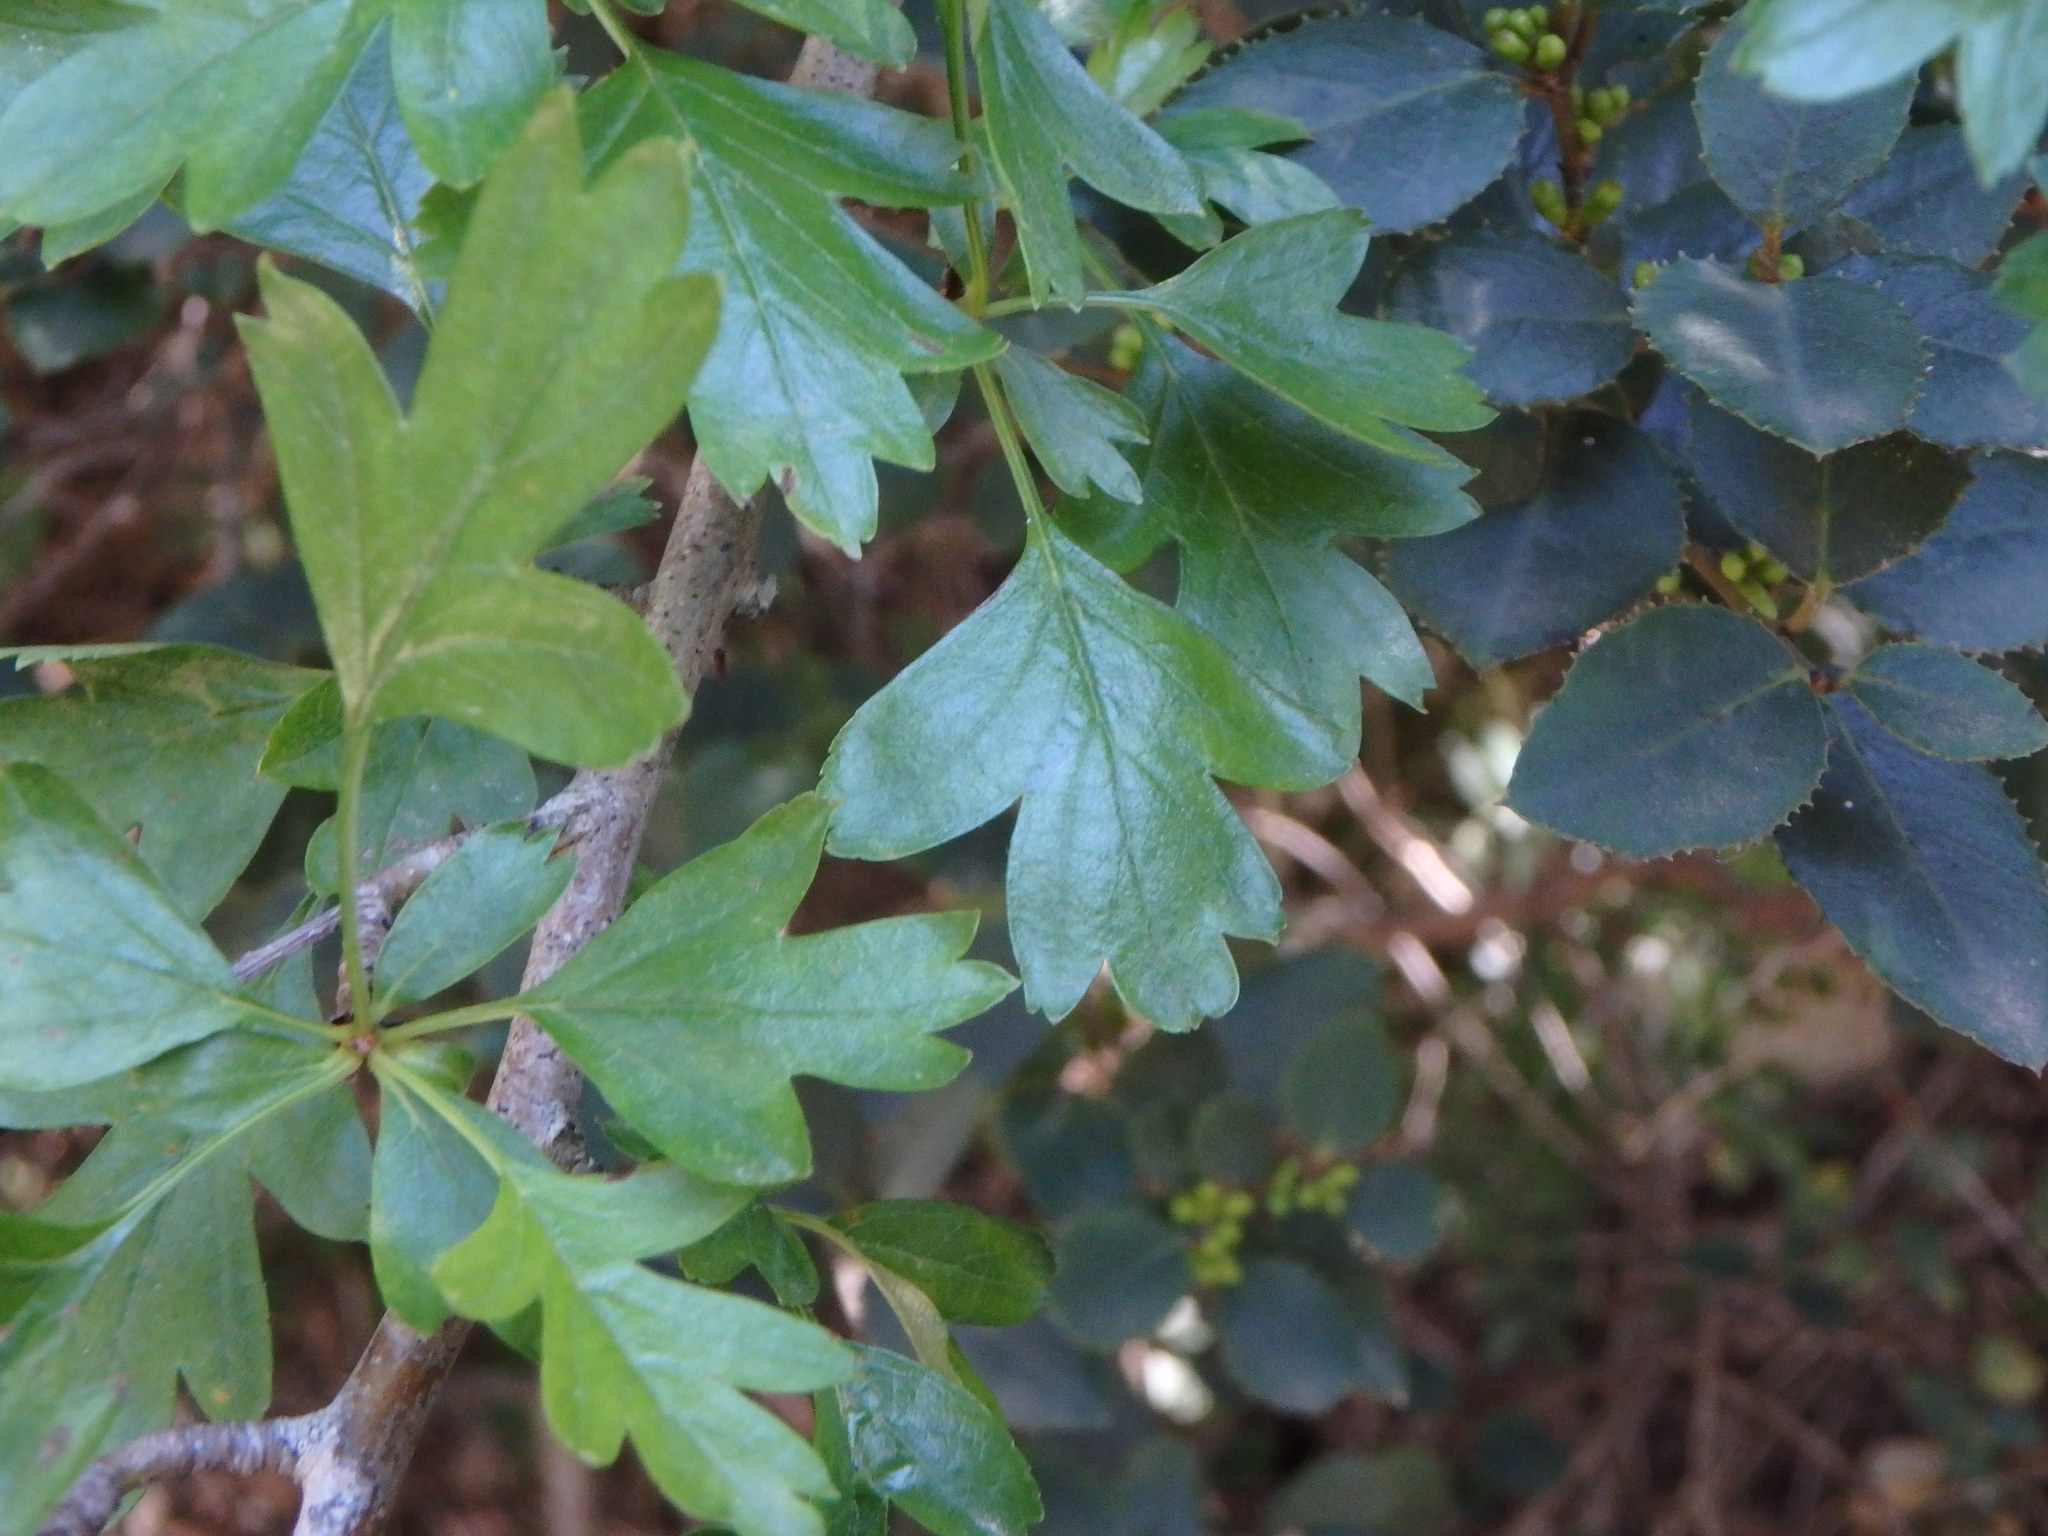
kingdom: Plantae
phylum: Tracheophyta
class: Magnoliopsida
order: Rosales
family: Rosaceae
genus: Crataegus
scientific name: Crataegus monogyna
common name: Hawthorn
